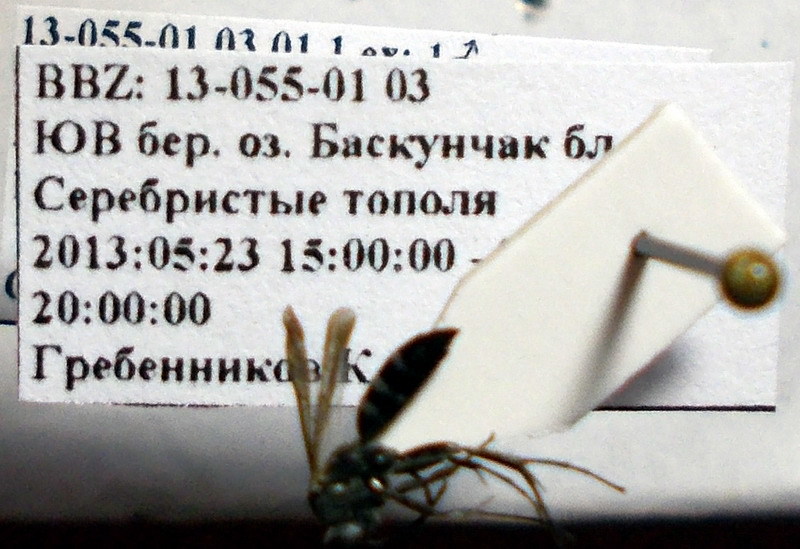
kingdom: Animalia
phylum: Arthropoda
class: Insecta
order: Hymenoptera
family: Pompilidae
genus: Aporinellus
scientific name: Aporinellus sexmaculatus
